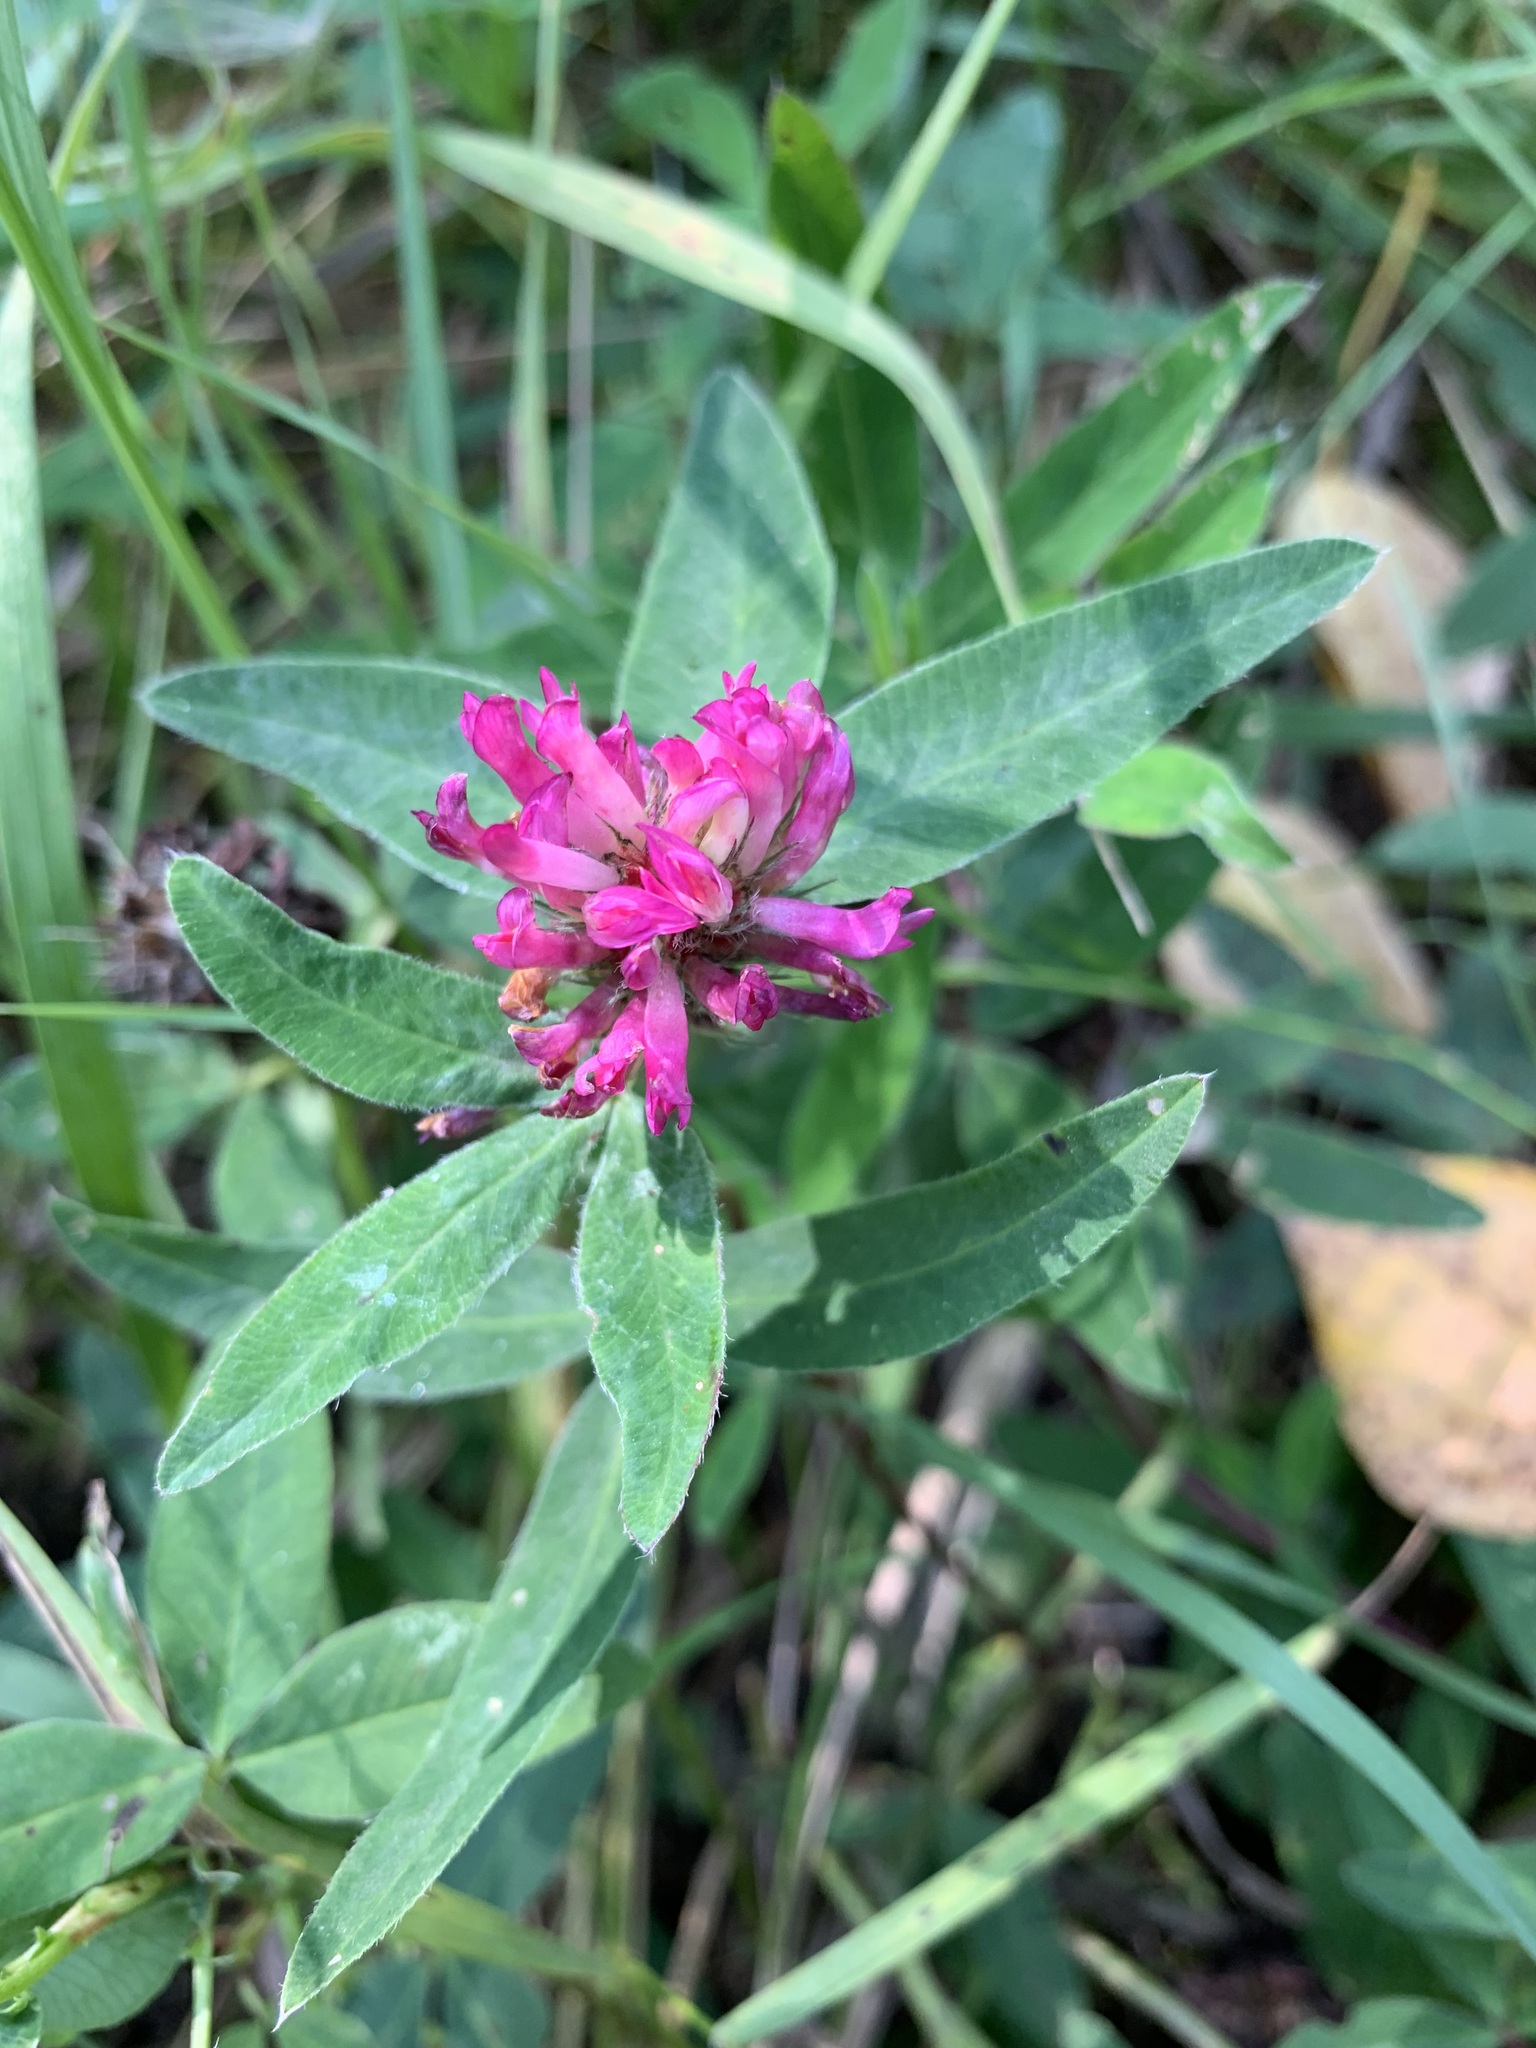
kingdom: Plantae
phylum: Tracheophyta
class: Magnoliopsida
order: Fabales
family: Fabaceae
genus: Trifolium
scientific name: Trifolium medium
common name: Zigzag clover
